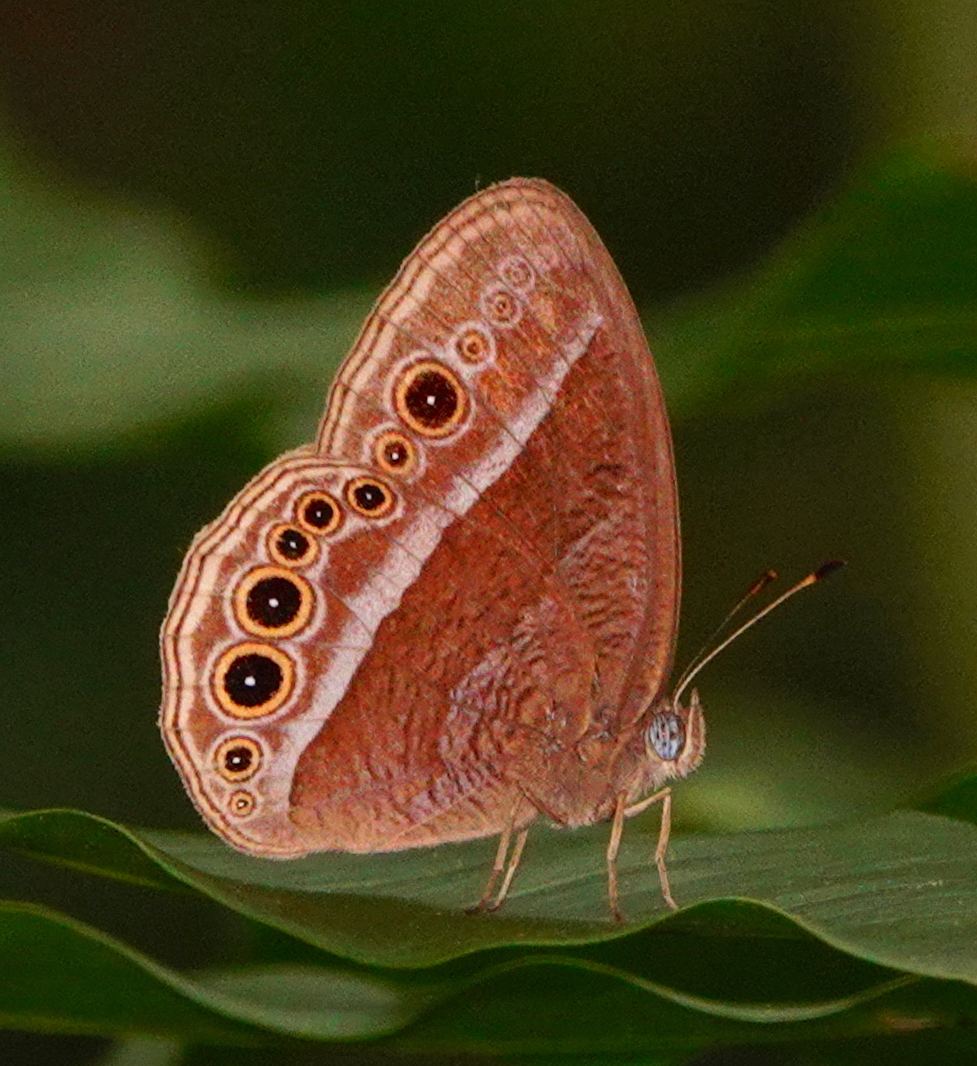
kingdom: Animalia
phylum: Arthropoda
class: Insecta
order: Lepidoptera
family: Nymphalidae
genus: Mycalesis
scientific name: Mycalesis Telinga janardana
